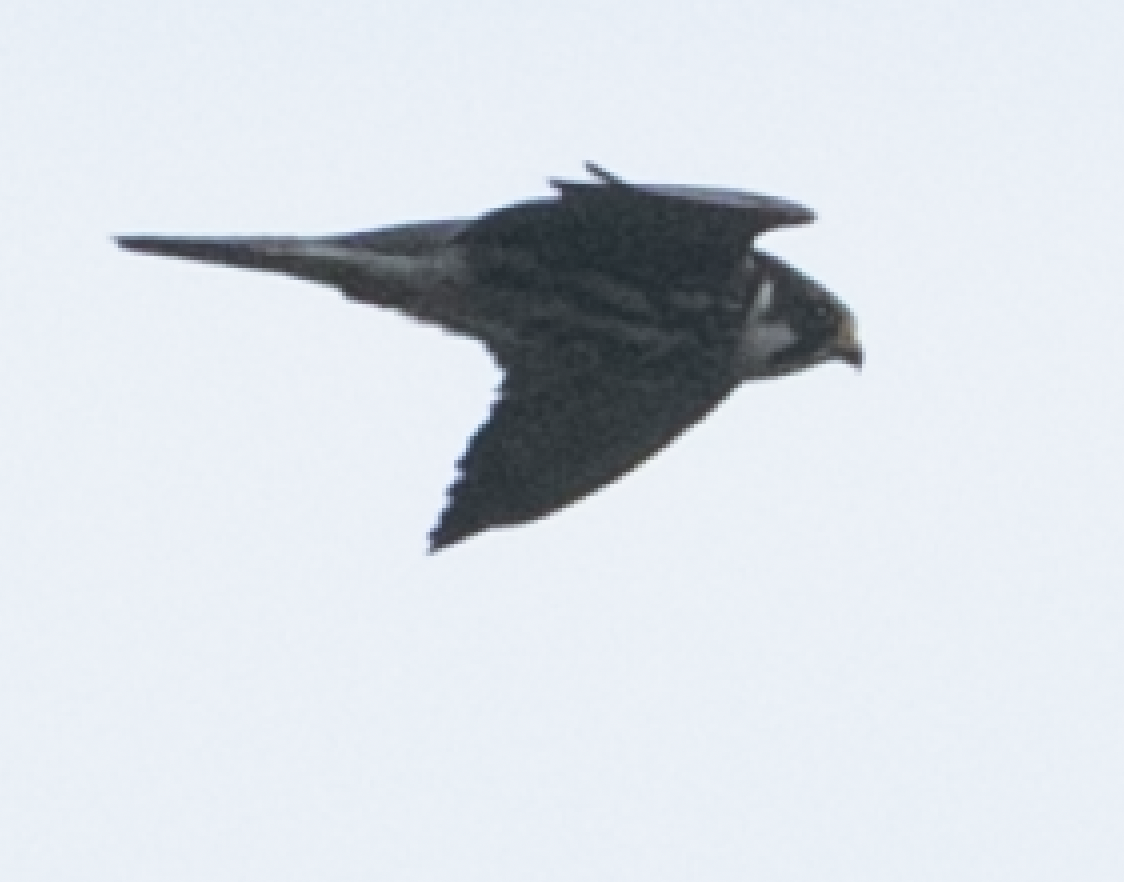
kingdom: Animalia
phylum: Chordata
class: Aves
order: Falconiformes
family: Falconidae
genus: Falco
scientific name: Falco subbuteo
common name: Eurasian hobby
